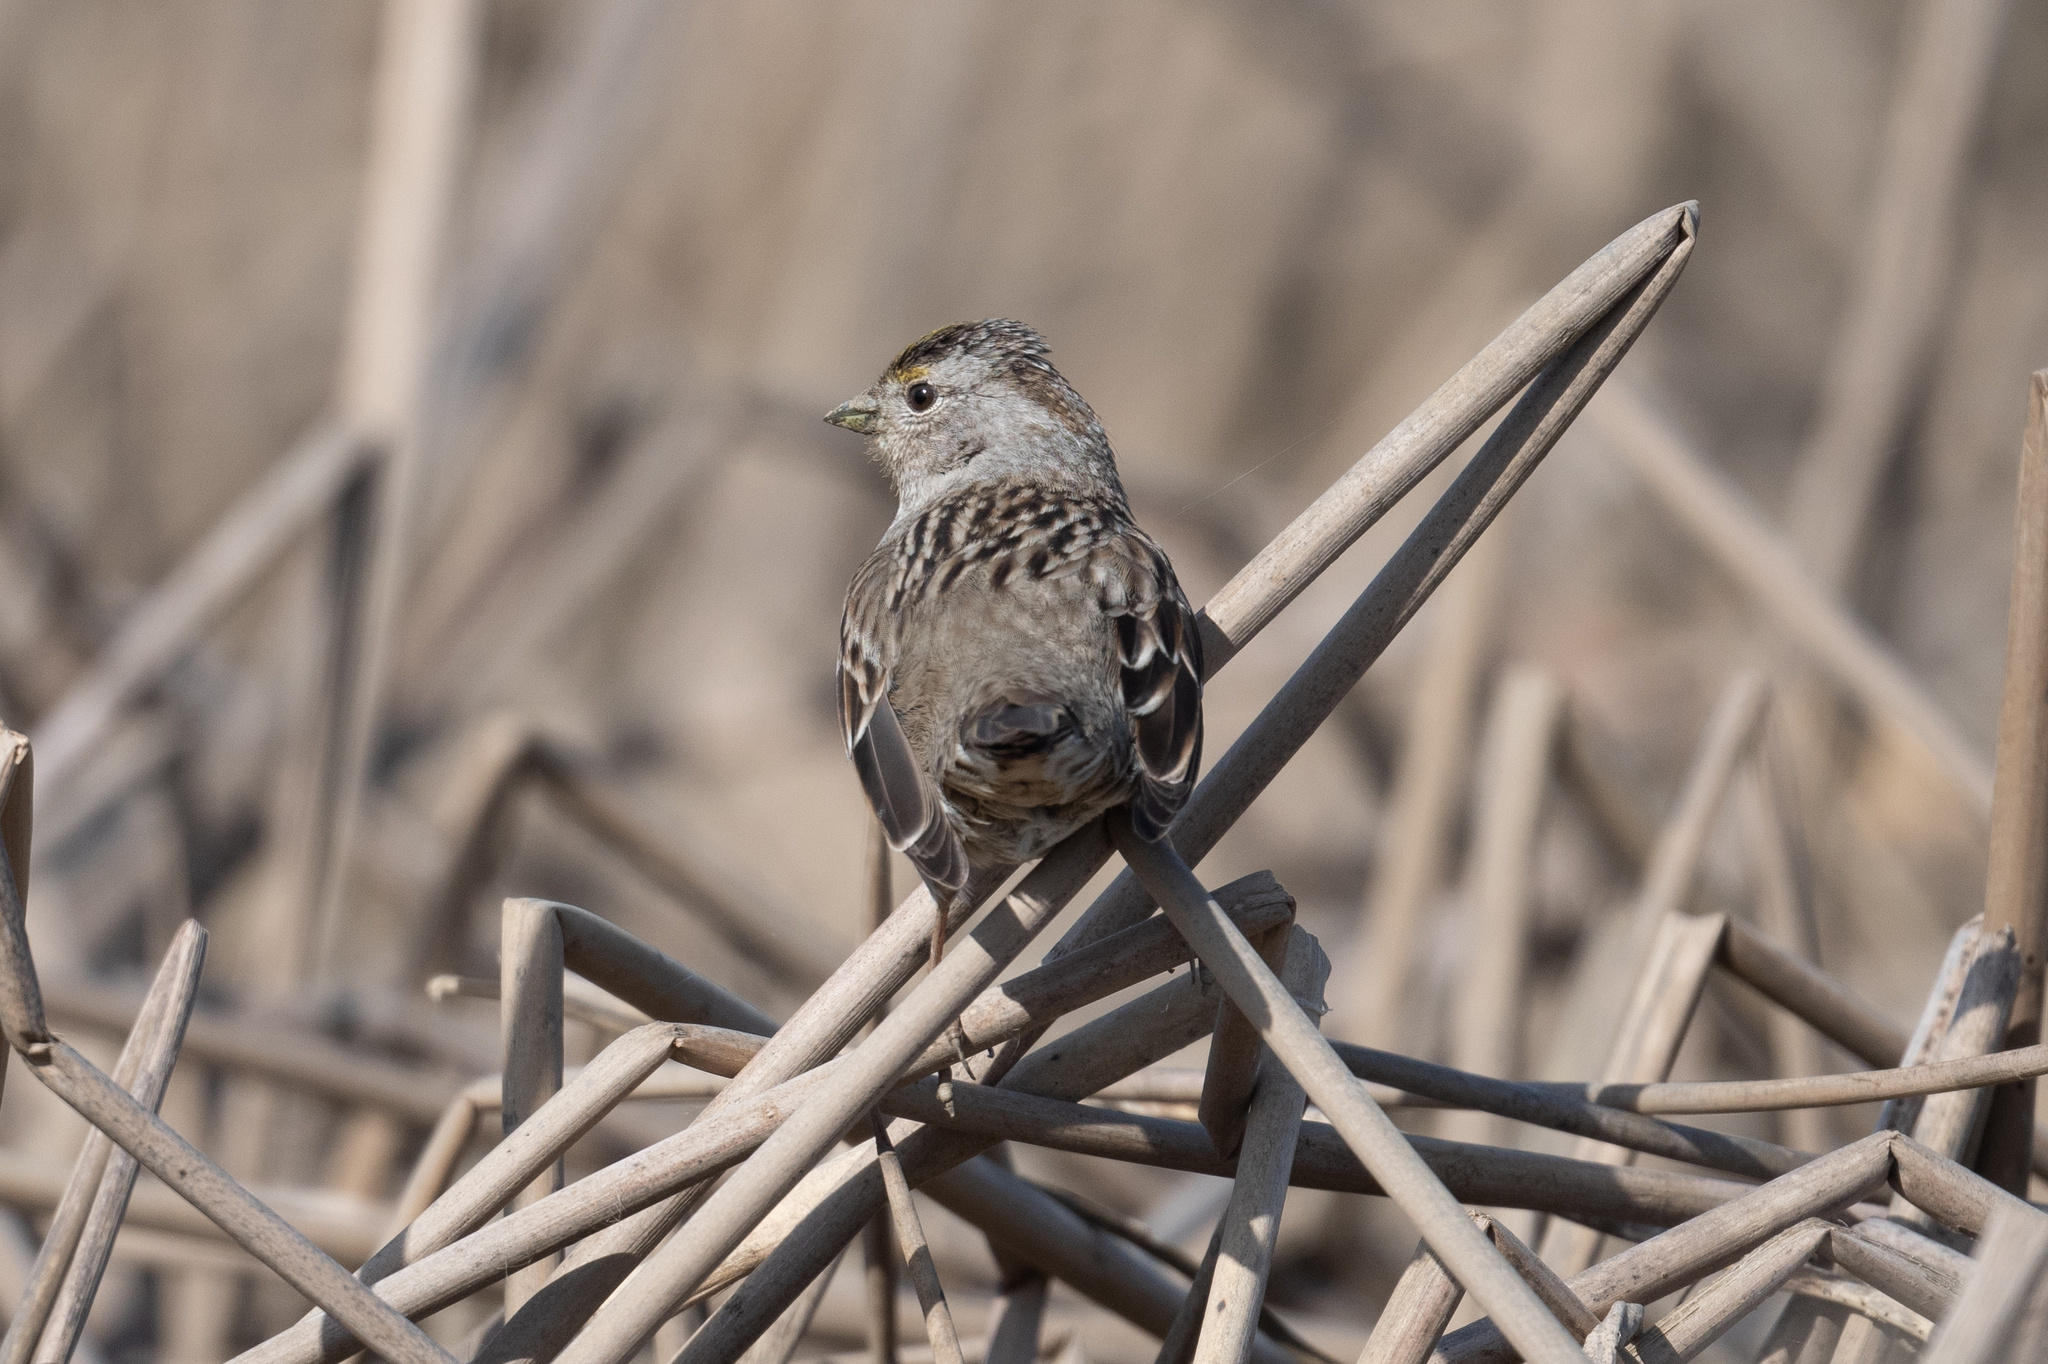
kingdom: Animalia
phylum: Chordata
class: Aves
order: Passeriformes
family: Passerellidae
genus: Zonotrichia
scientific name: Zonotrichia atricapilla
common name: Golden-crowned sparrow
